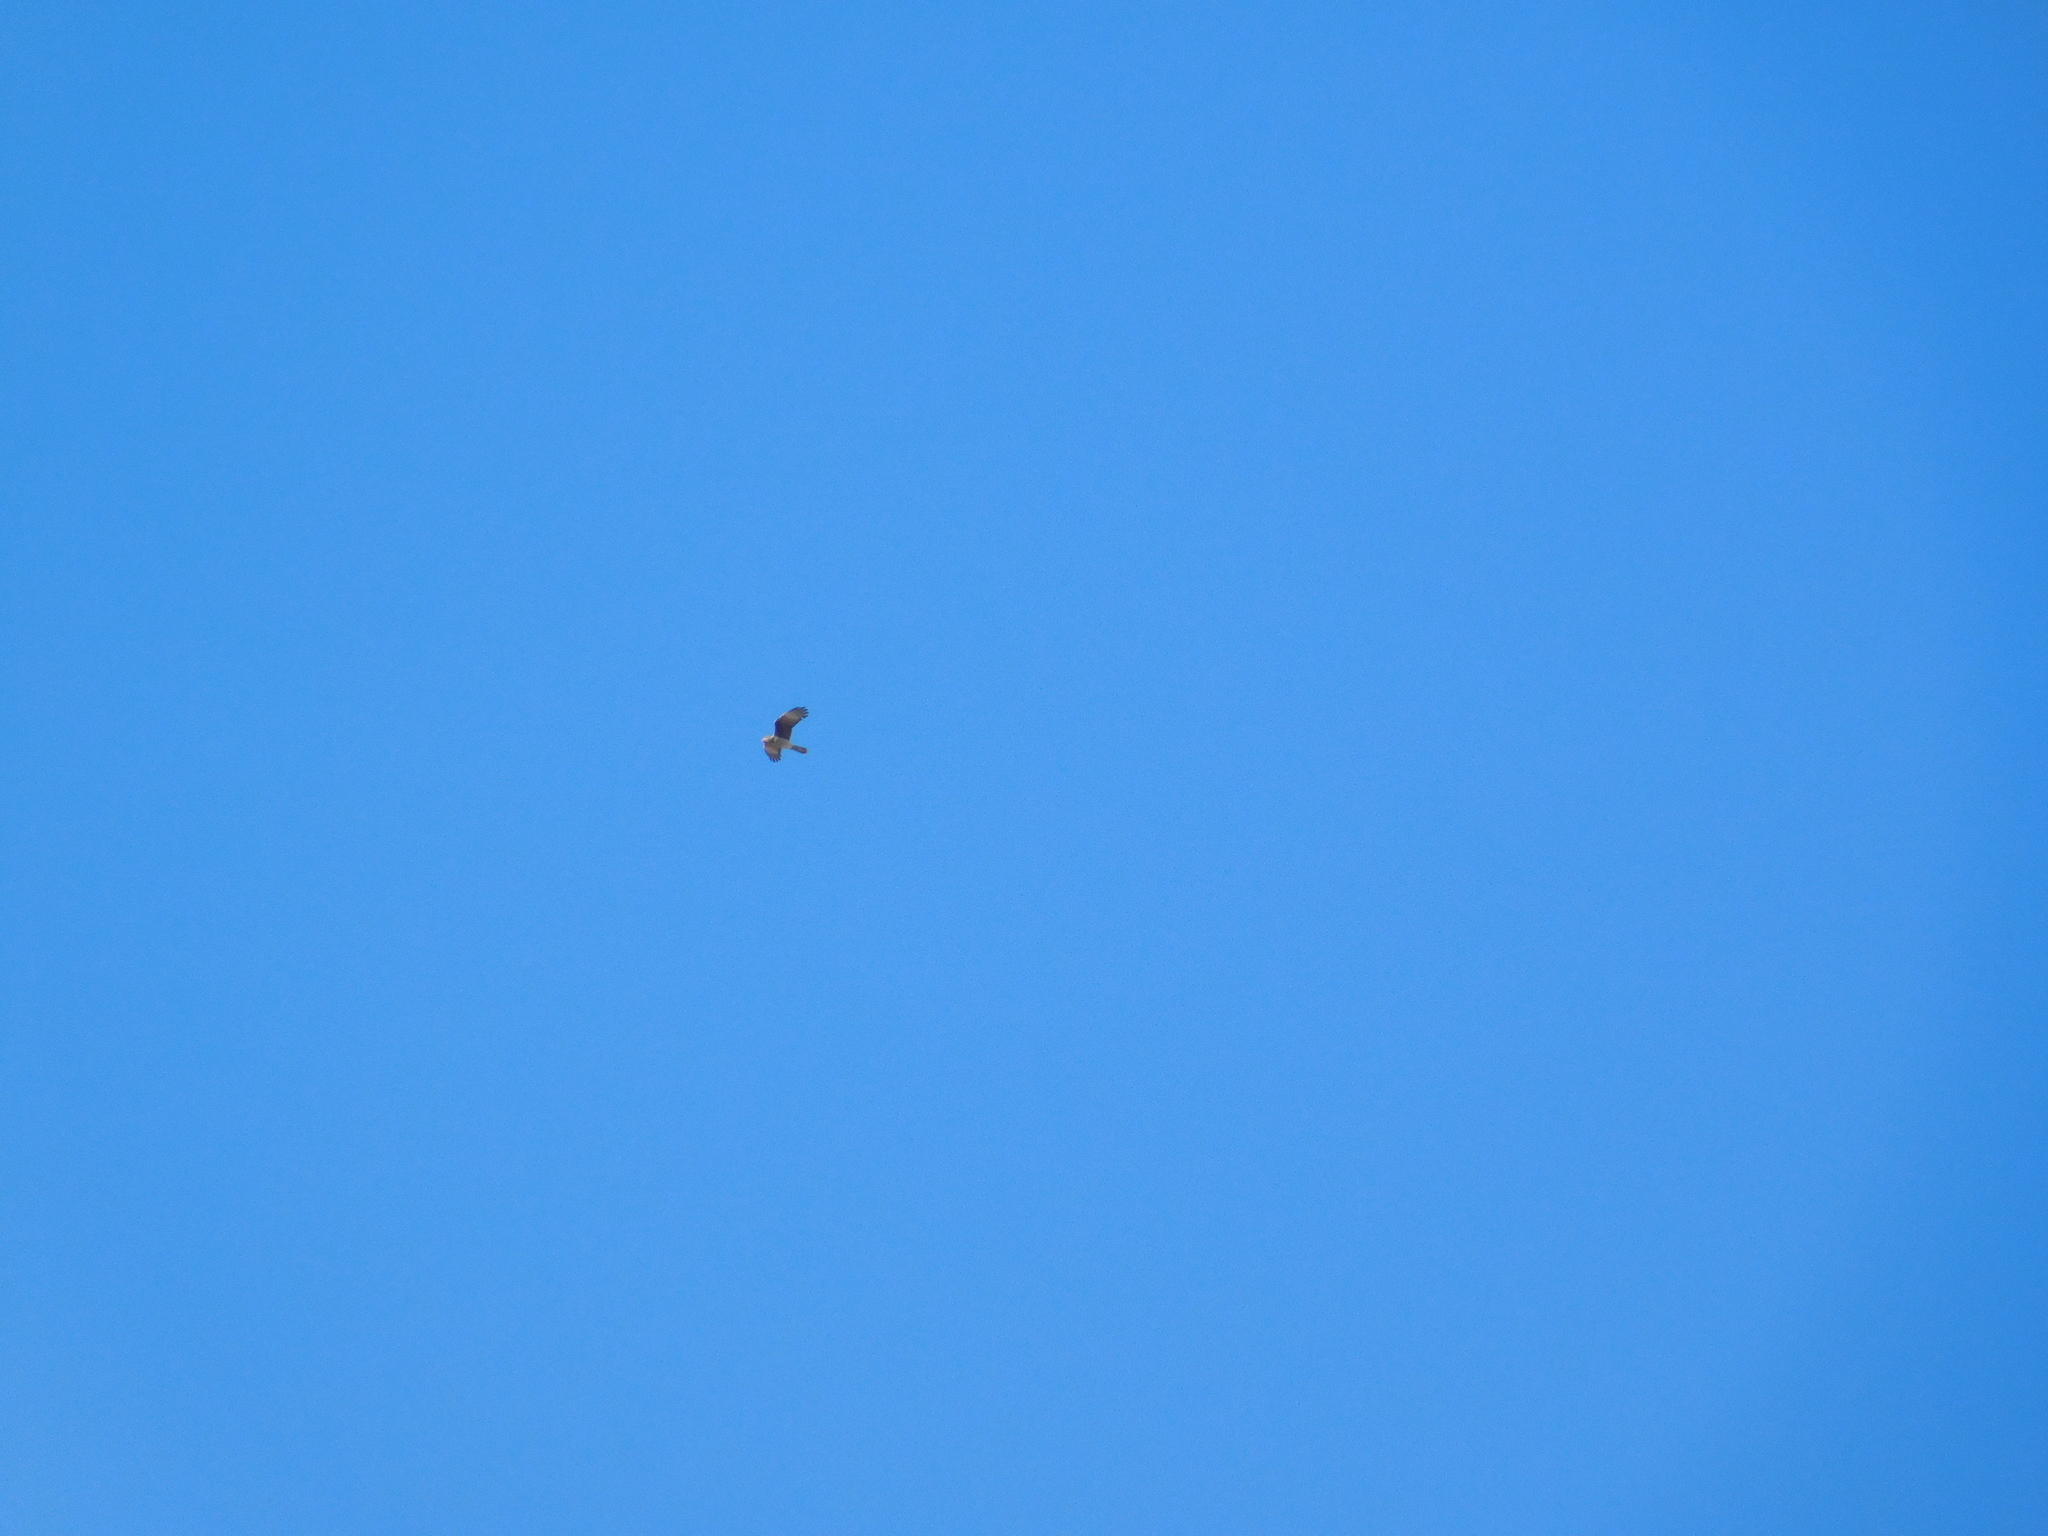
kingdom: Animalia
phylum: Chordata
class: Aves
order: Falconiformes
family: Falconidae
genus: Daptrius
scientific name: Daptrius
